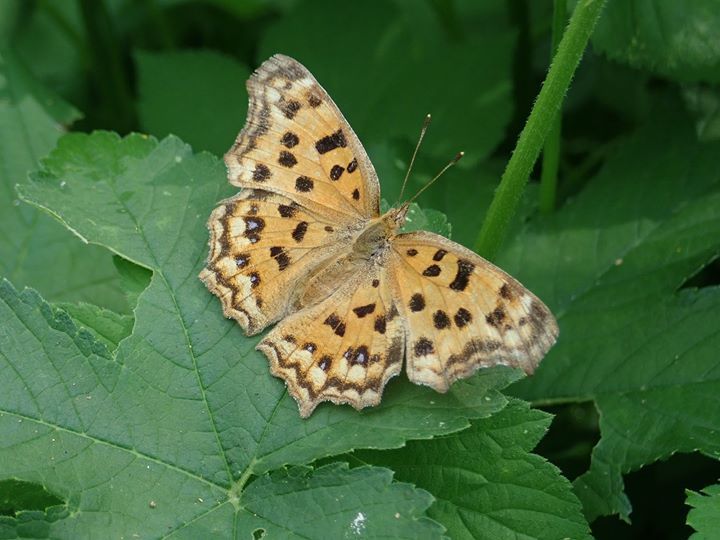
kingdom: Animalia
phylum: Arthropoda
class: Insecta
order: Lepidoptera
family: Nymphalidae
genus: Polygonia
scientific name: Polygonia c-aureum
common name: Asian comma
